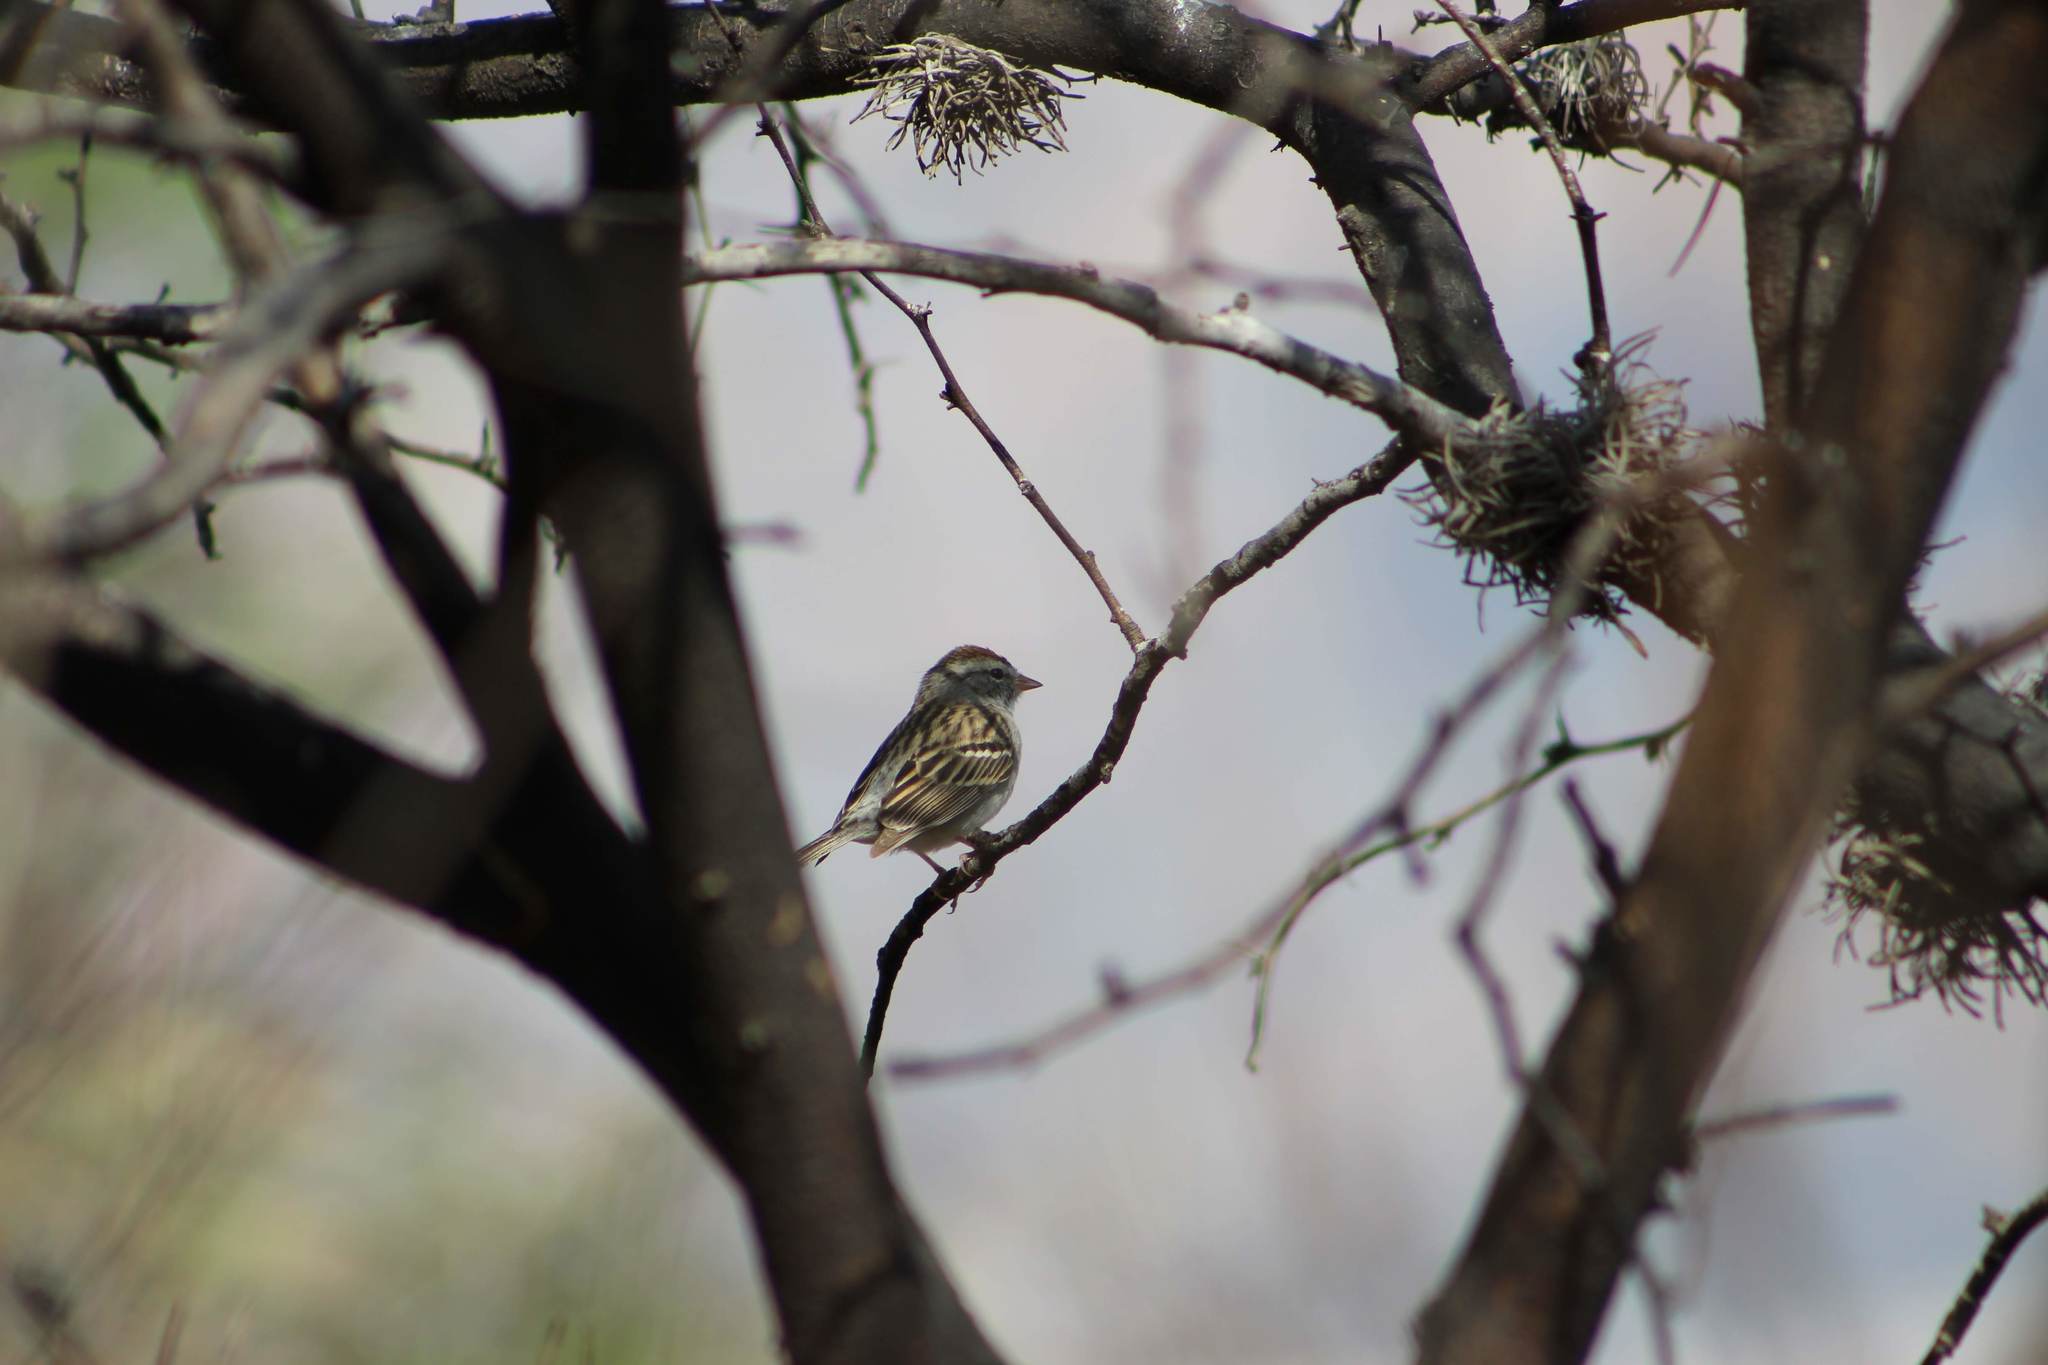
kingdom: Animalia
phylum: Chordata
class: Aves
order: Passeriformes
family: Passerellidae
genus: Spizella
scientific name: Spizella passerina
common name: Chipping sparrow
